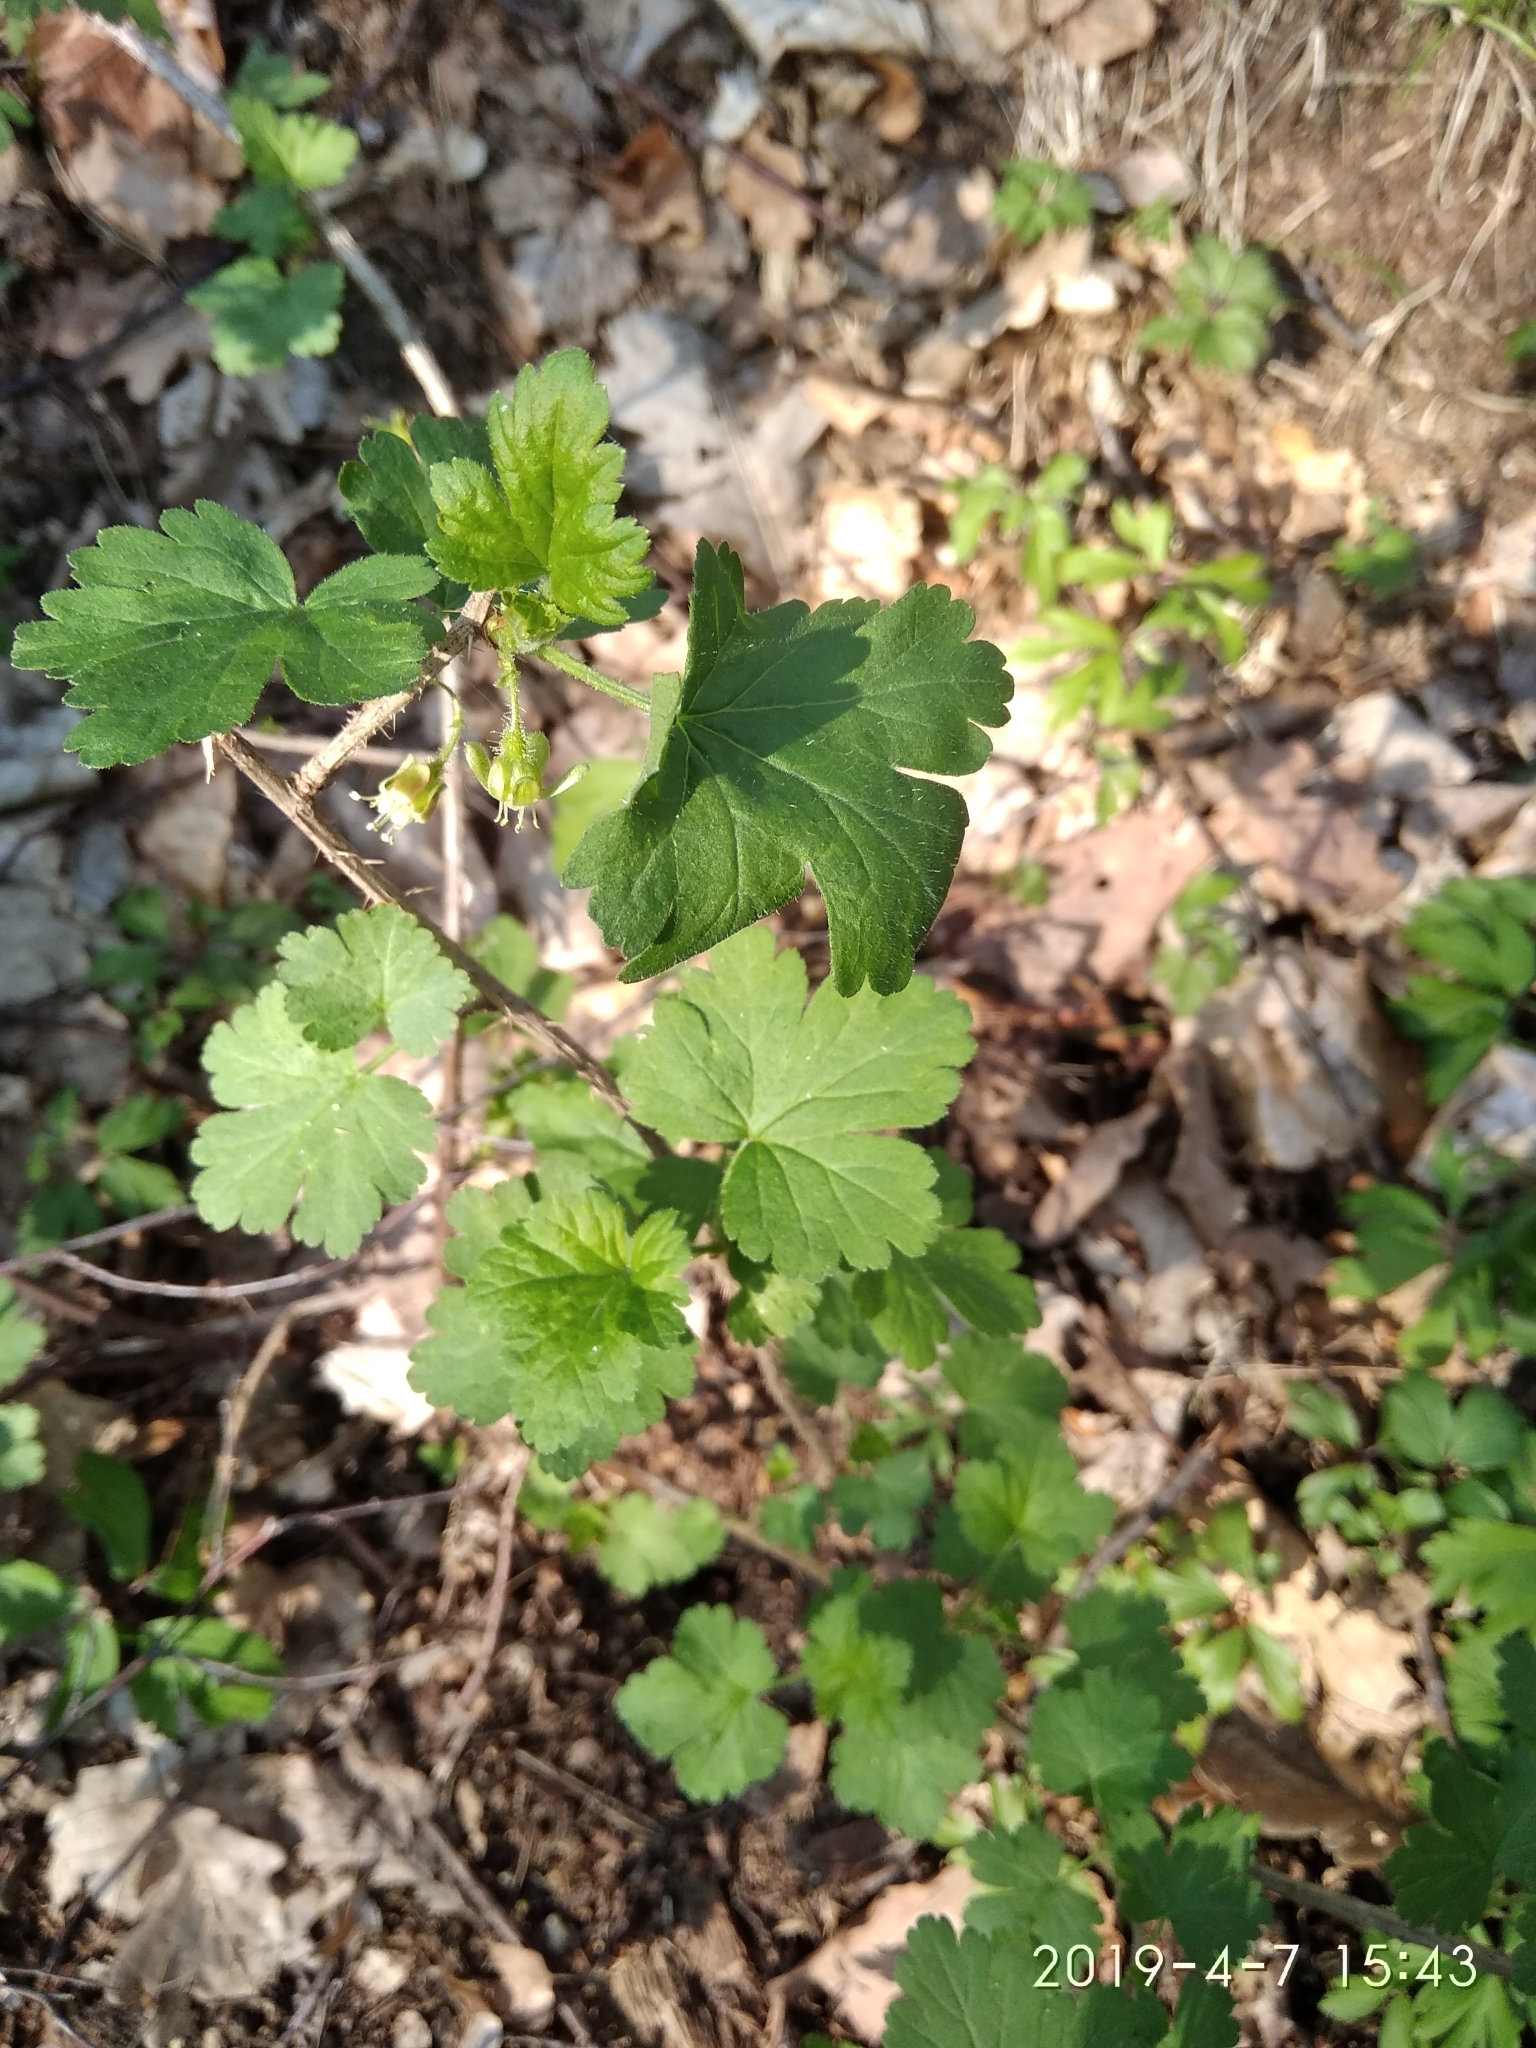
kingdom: Plantae
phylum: Tracheophyta
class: Magnoliopsida
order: Saxifragales
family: Grossulariaceae
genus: Ribes
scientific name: Ribes uva-crispa
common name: Gooseberry
